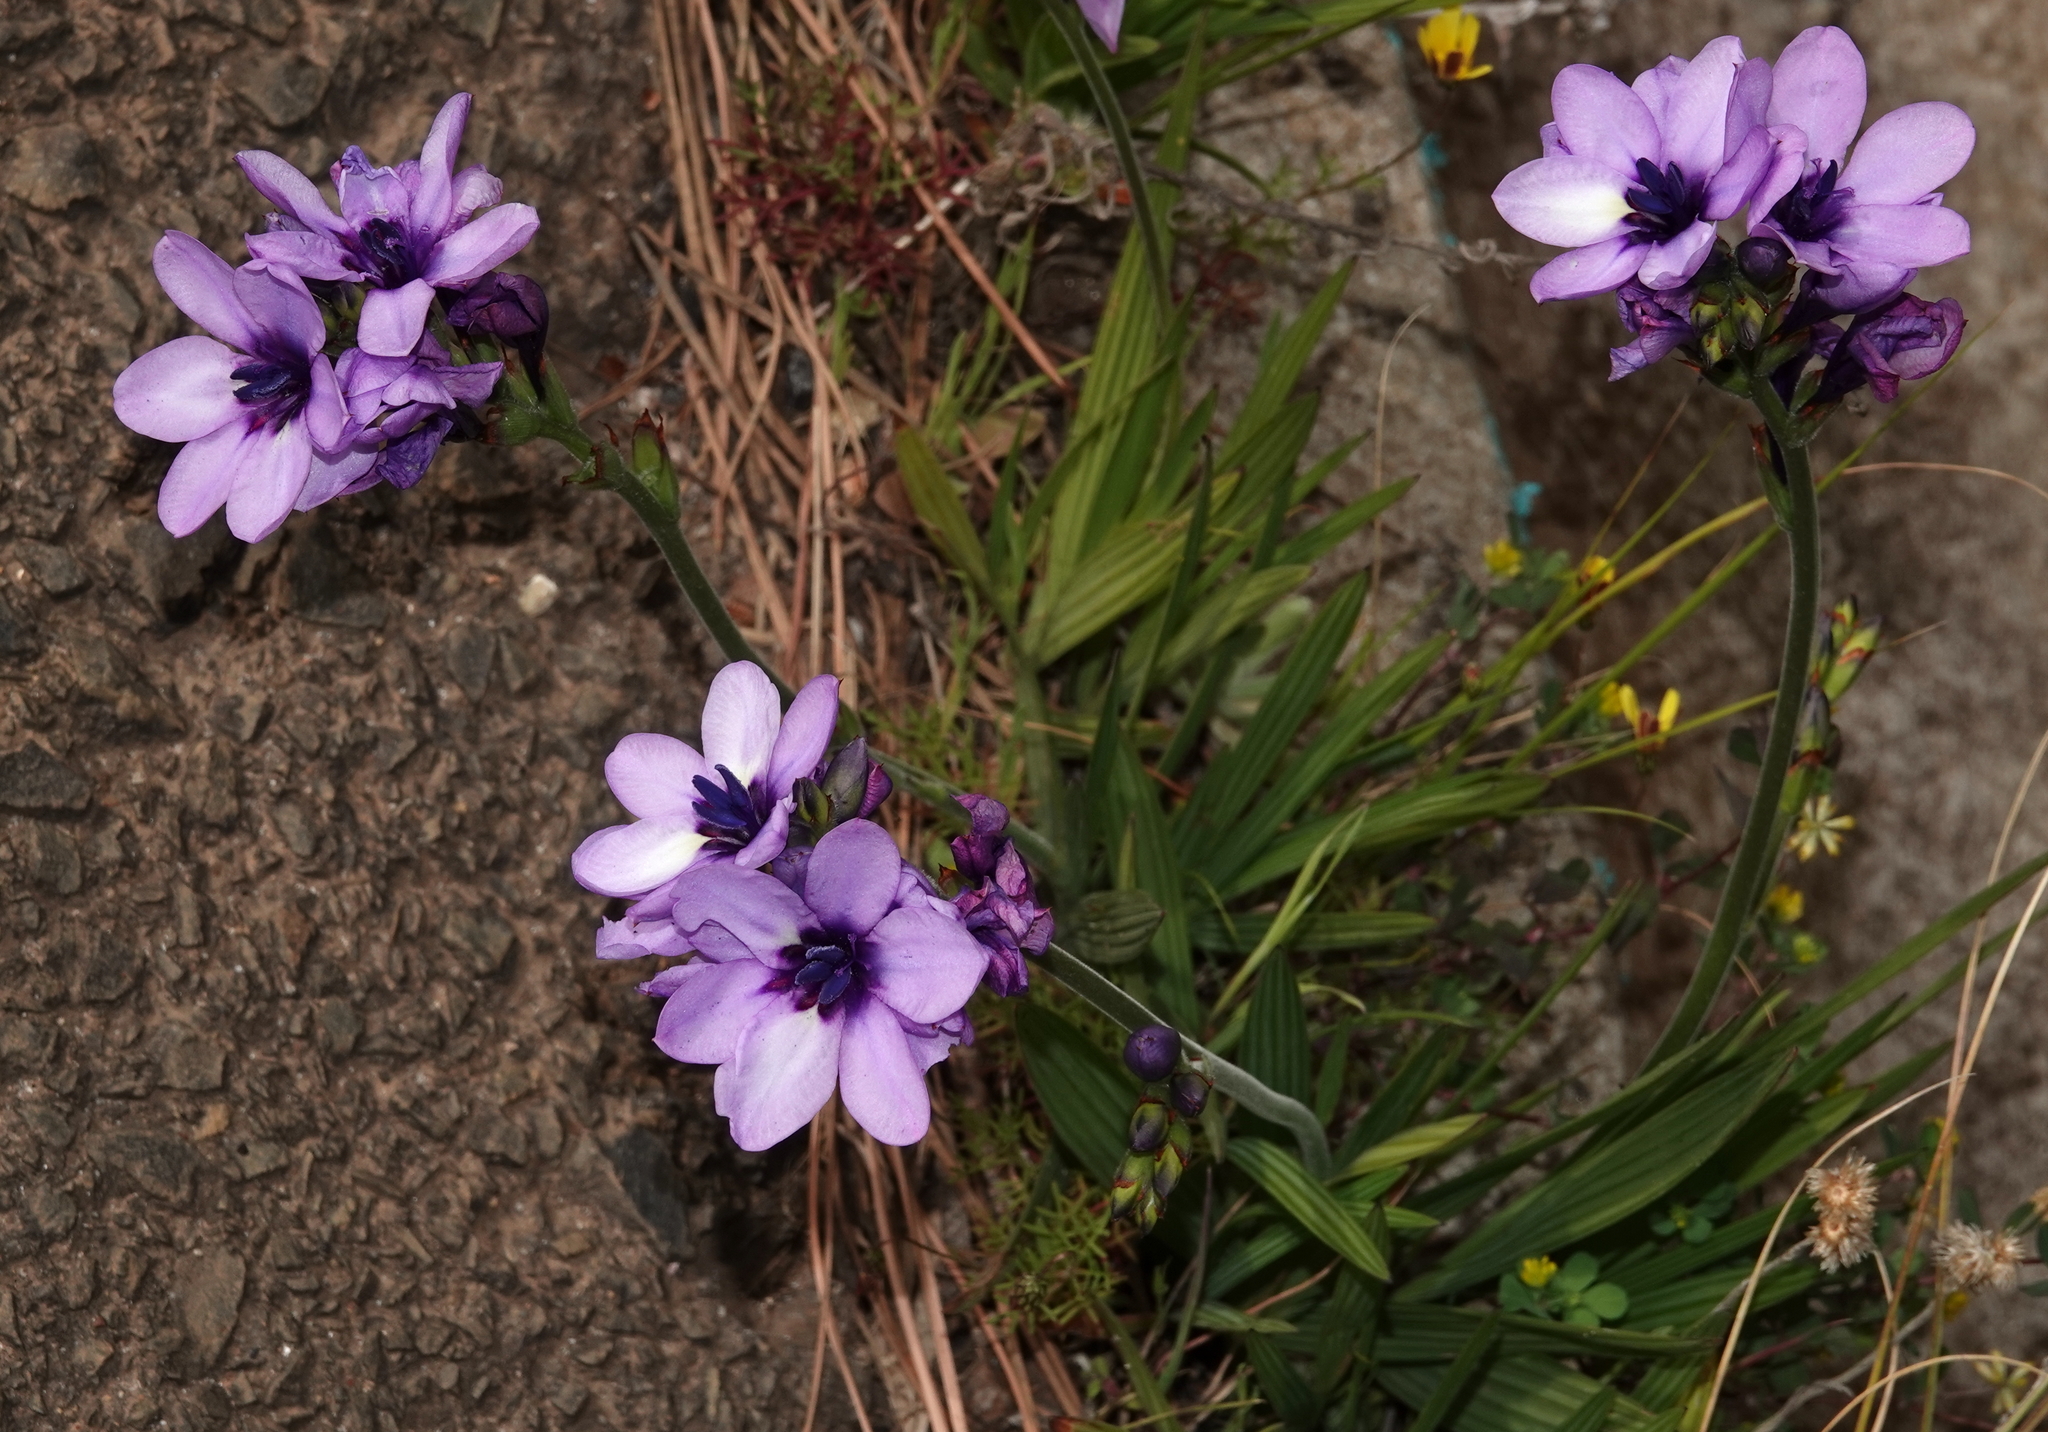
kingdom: Plantae
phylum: Tracheophyta
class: Liliopsida
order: Asparagales
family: Iridaceae
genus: Babiana
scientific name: Babiana fragrans
